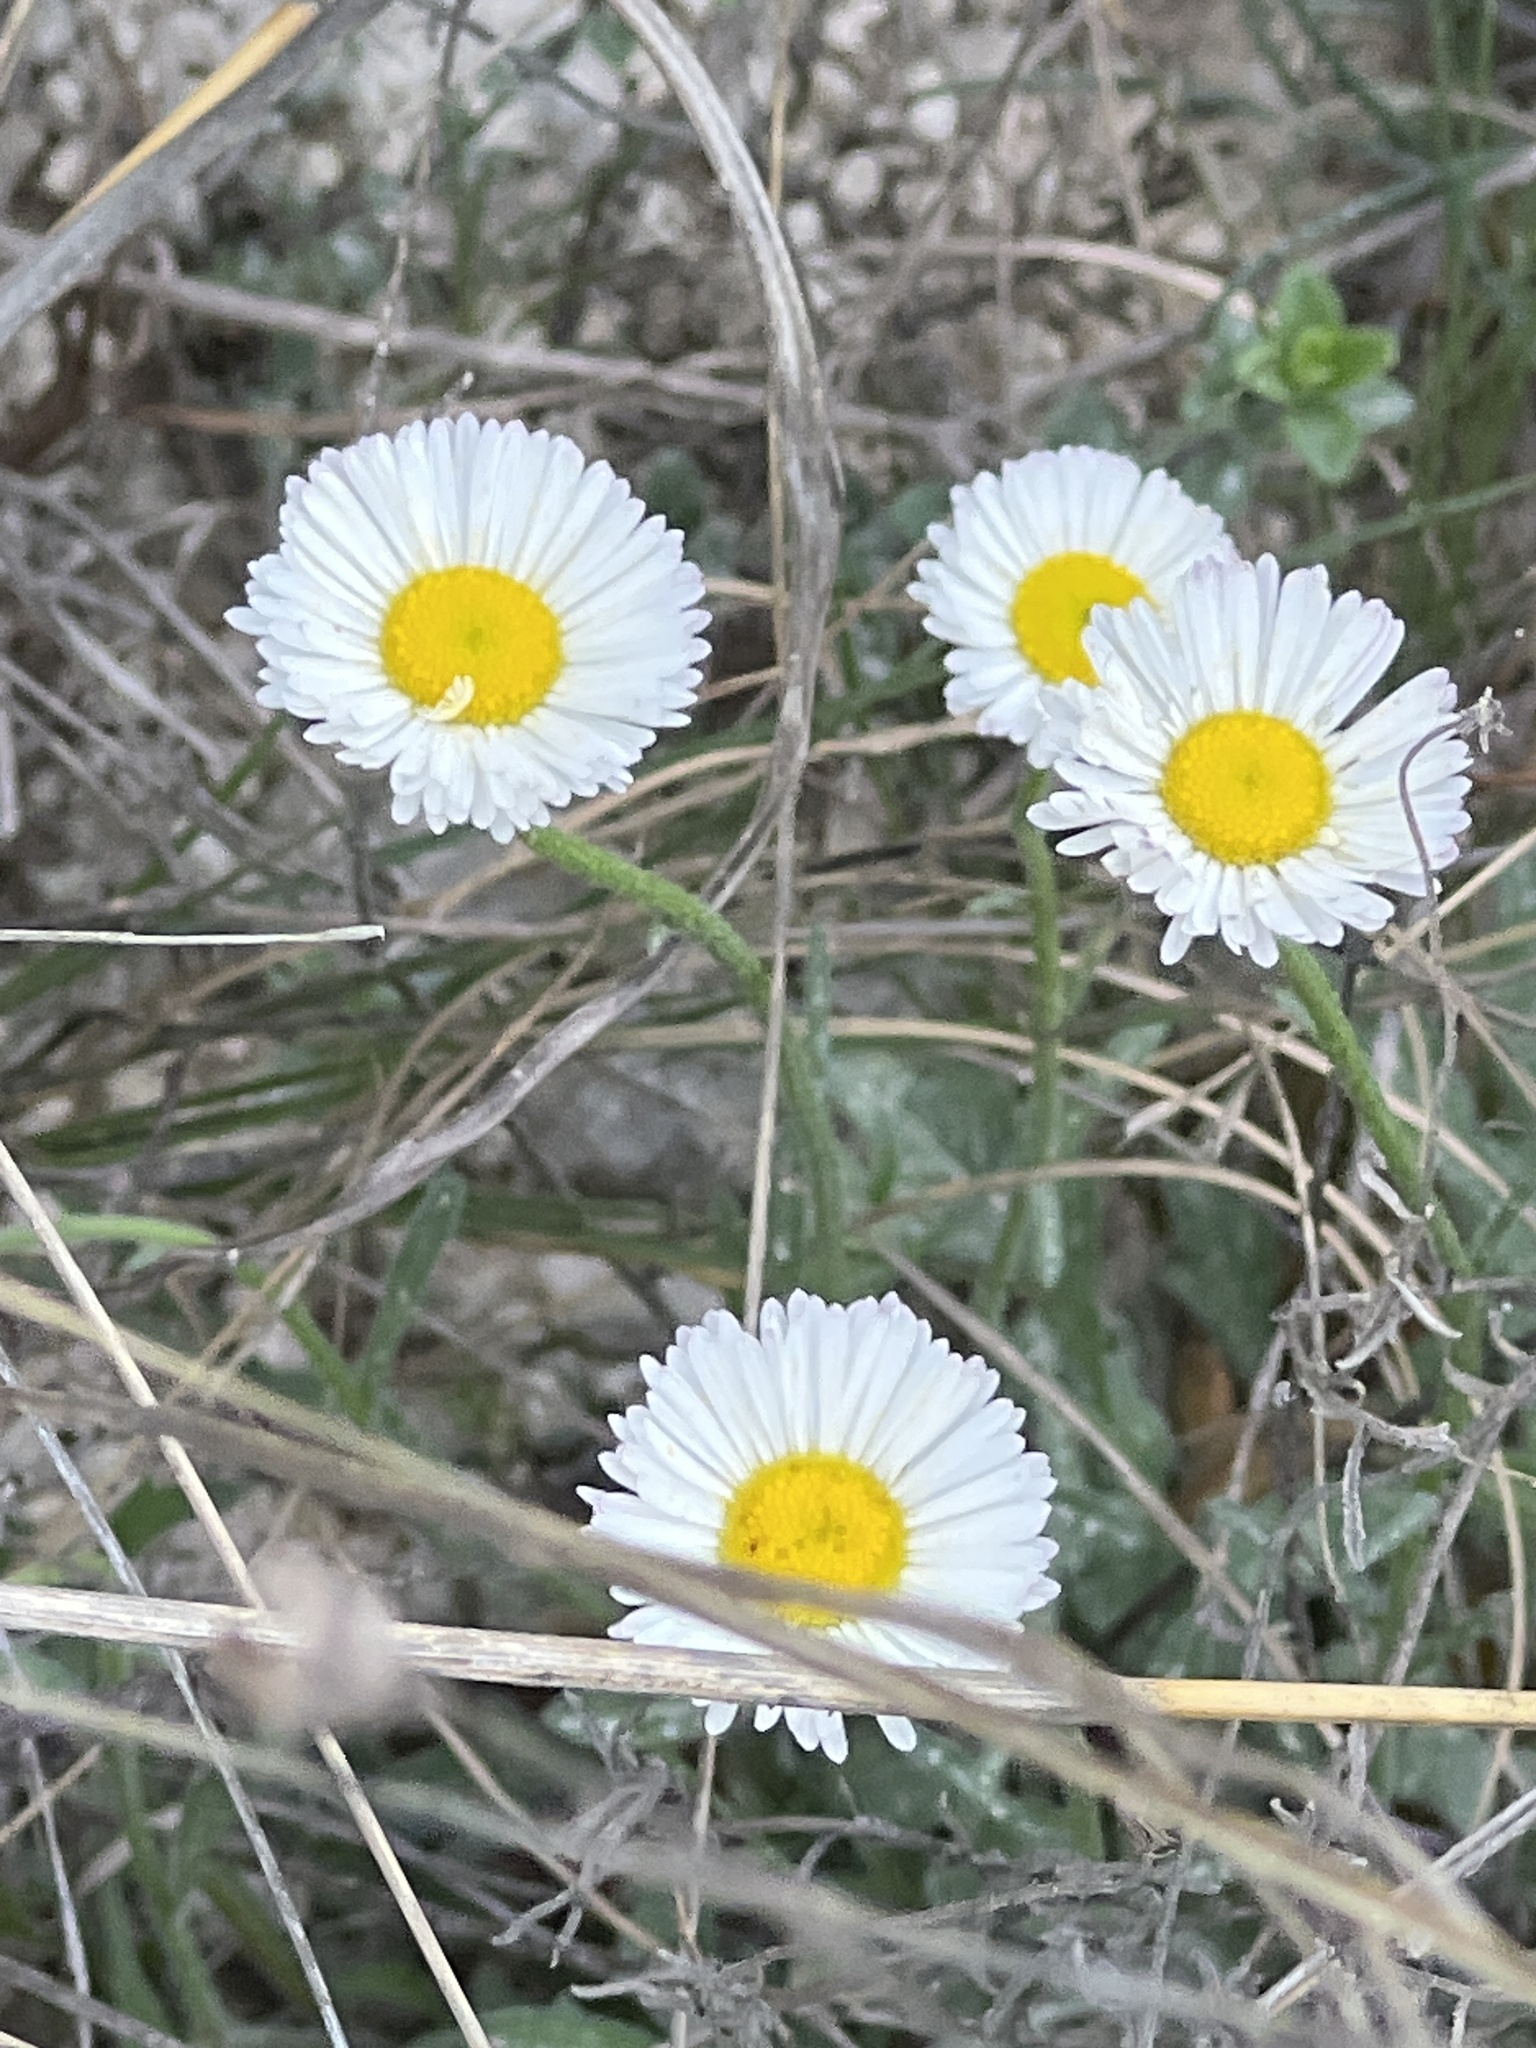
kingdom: Plantae
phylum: Tracheophyta
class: Magnoliopsida
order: Asterales
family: Asteraceae
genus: Erigeron
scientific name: Erigeron modestus
